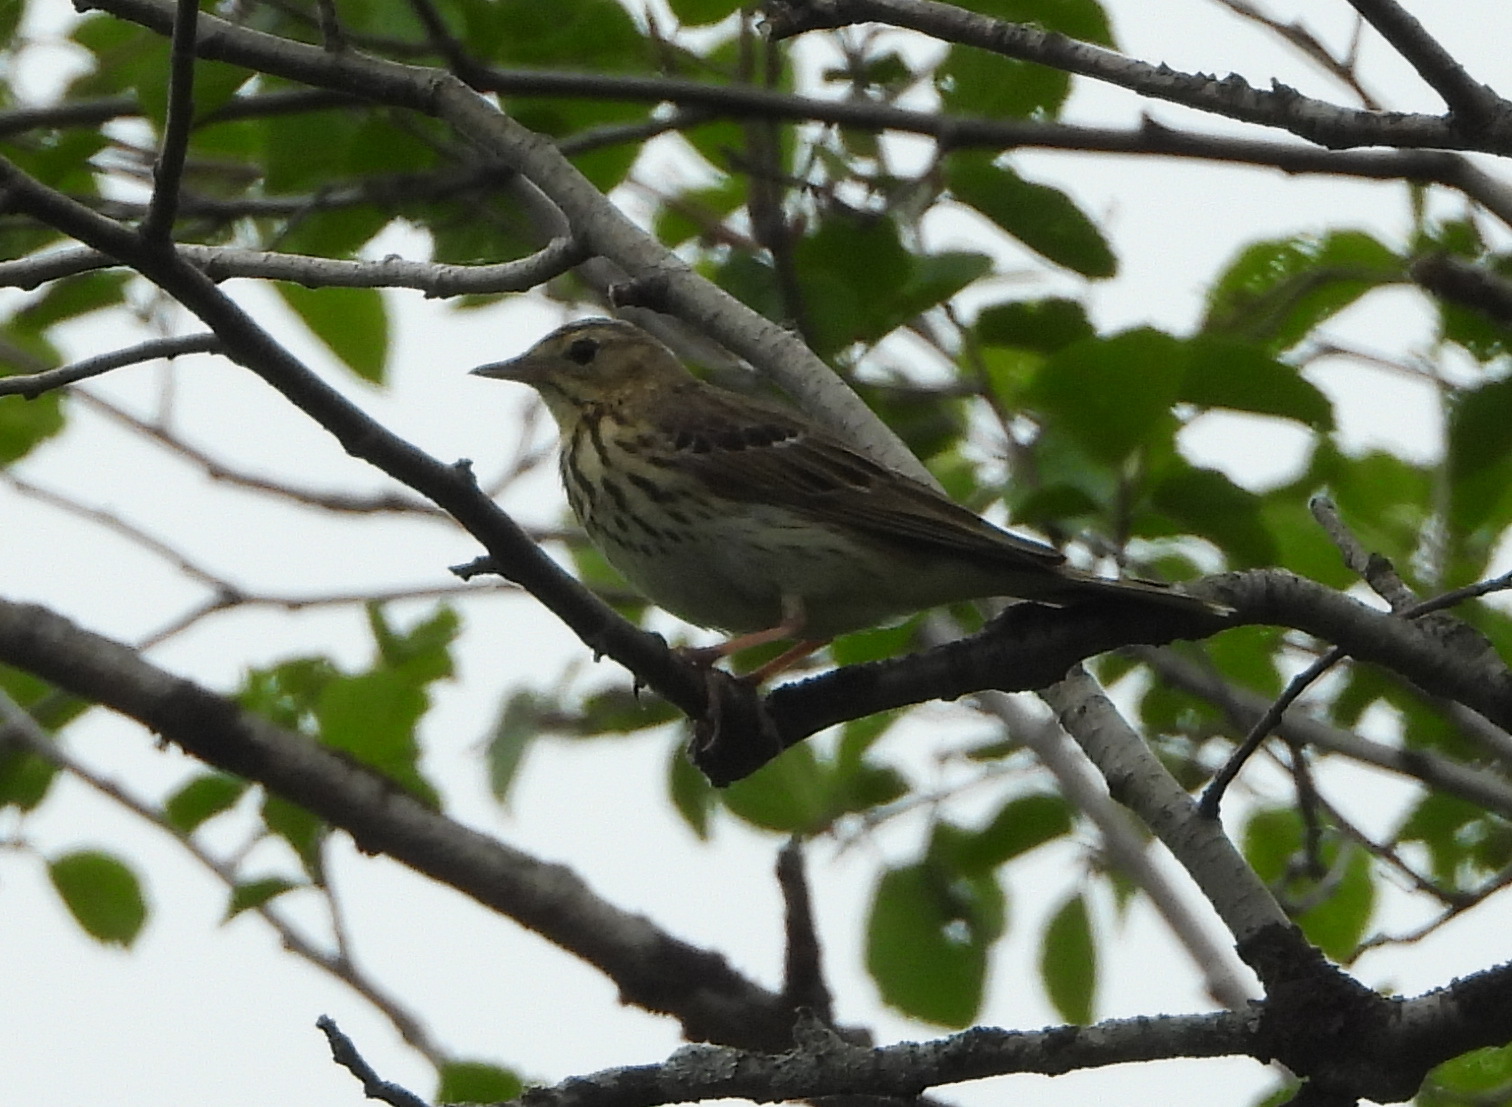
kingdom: Animalia
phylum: Chordata
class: Aves
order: Passeriformes
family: Motacillidae
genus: Anthus
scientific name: Anthus trivialis
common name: Tree pipit
